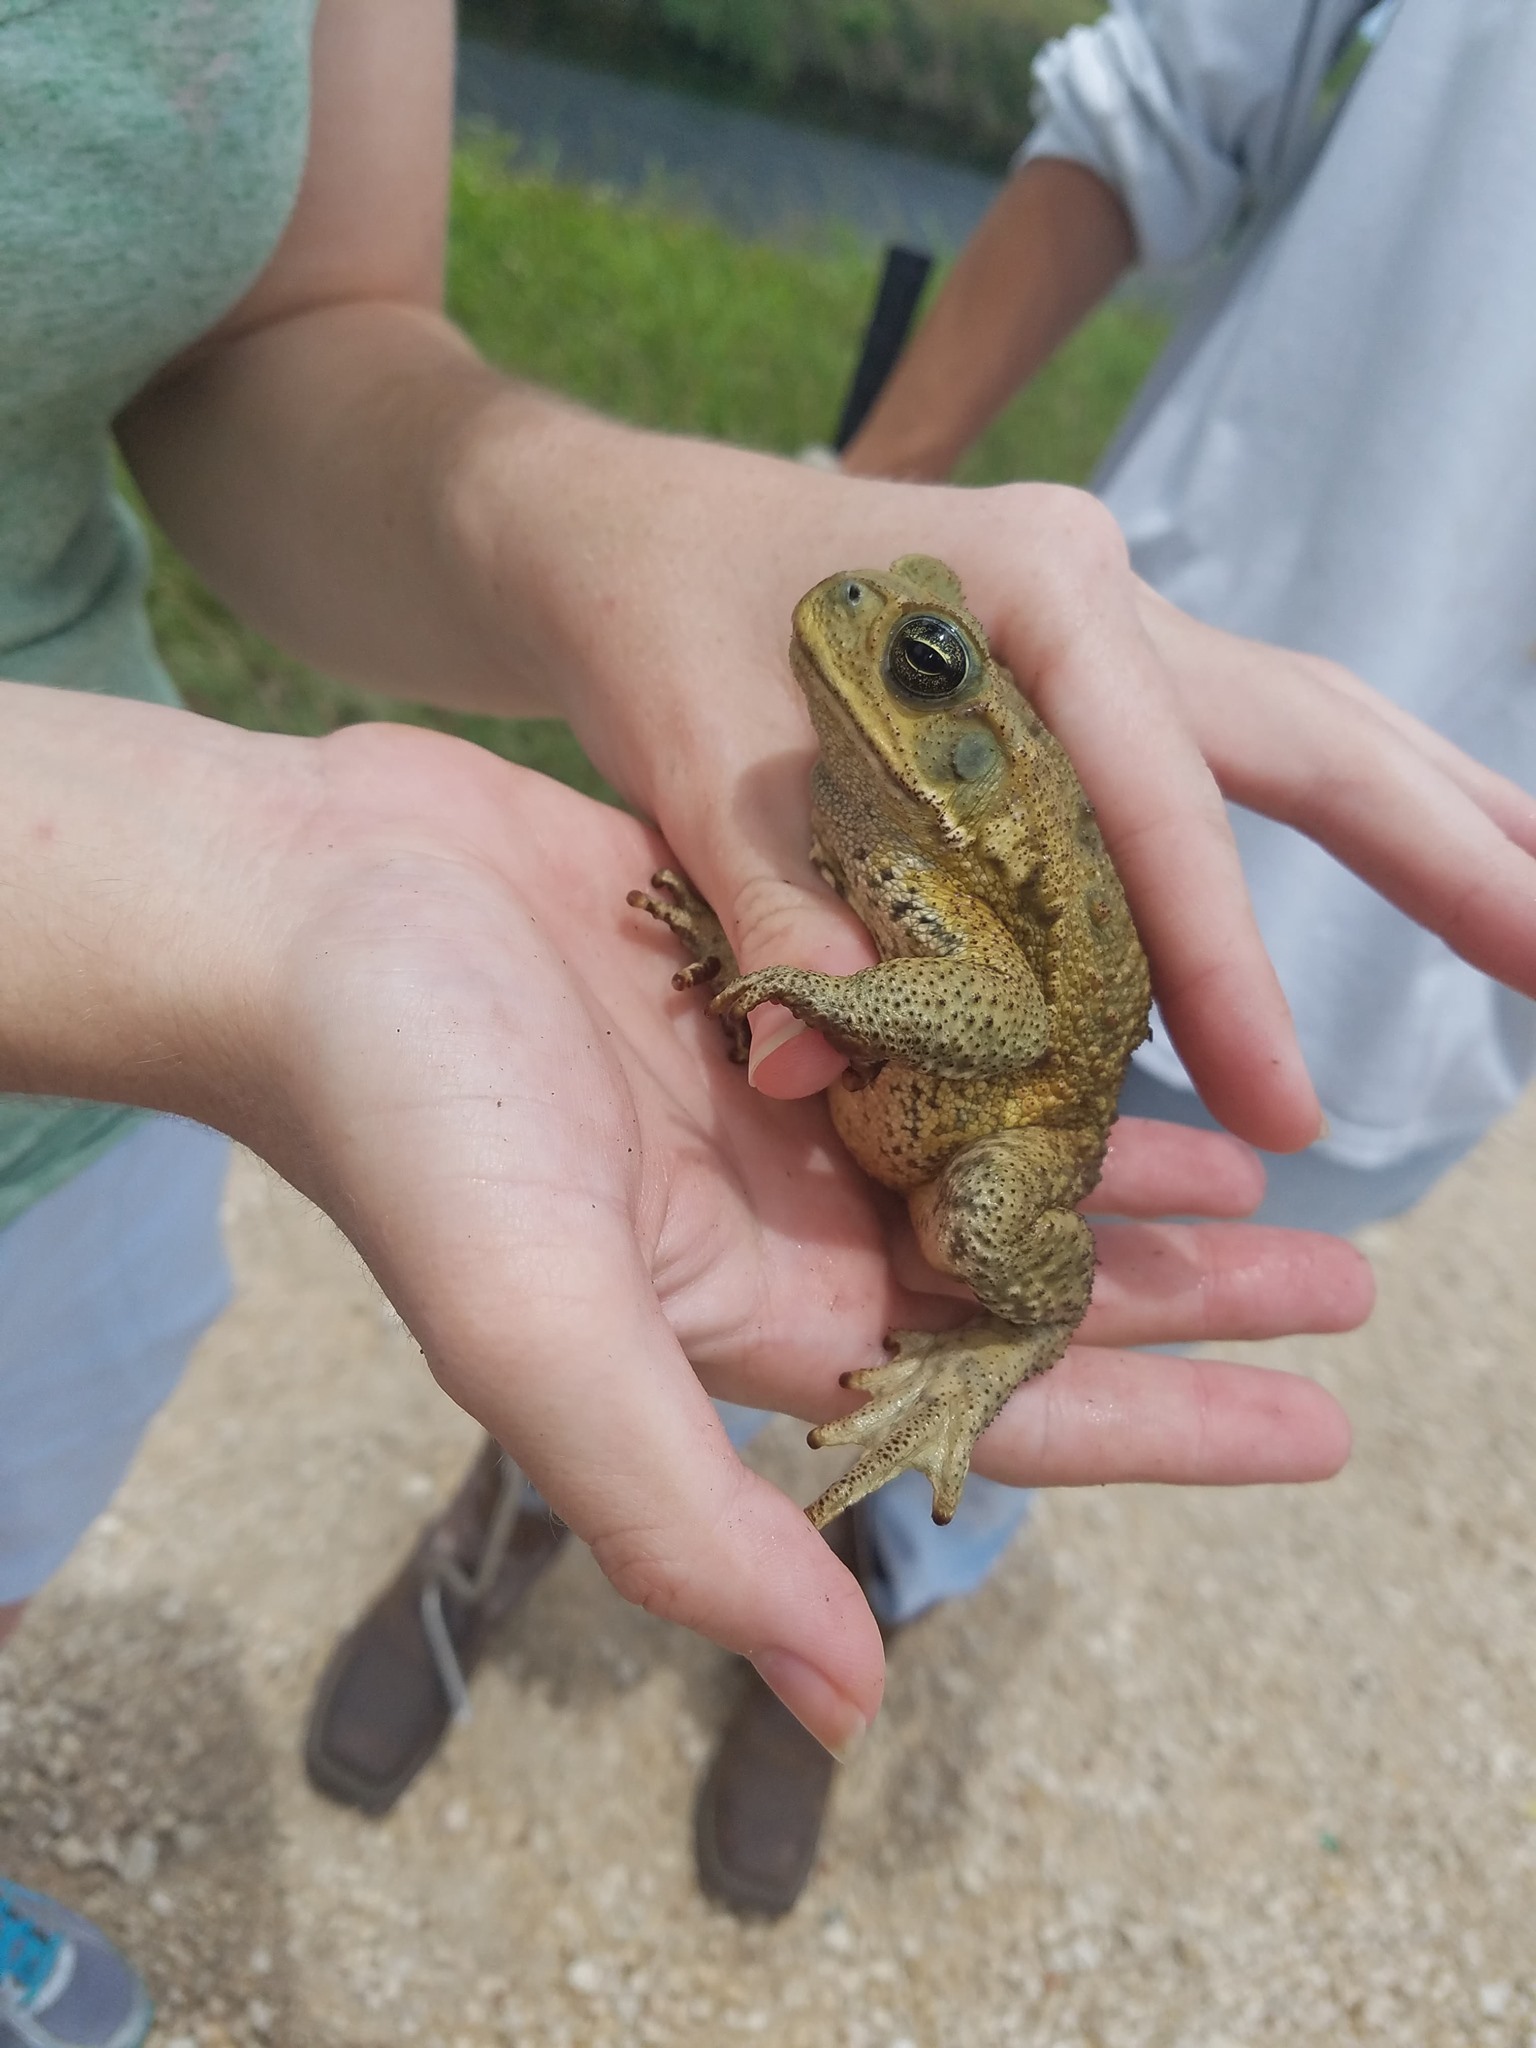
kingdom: Animalia
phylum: Chordata
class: Amphibia
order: Anura
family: Bufonidae
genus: Rhinella
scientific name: Rhinella marina
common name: Cane toad
